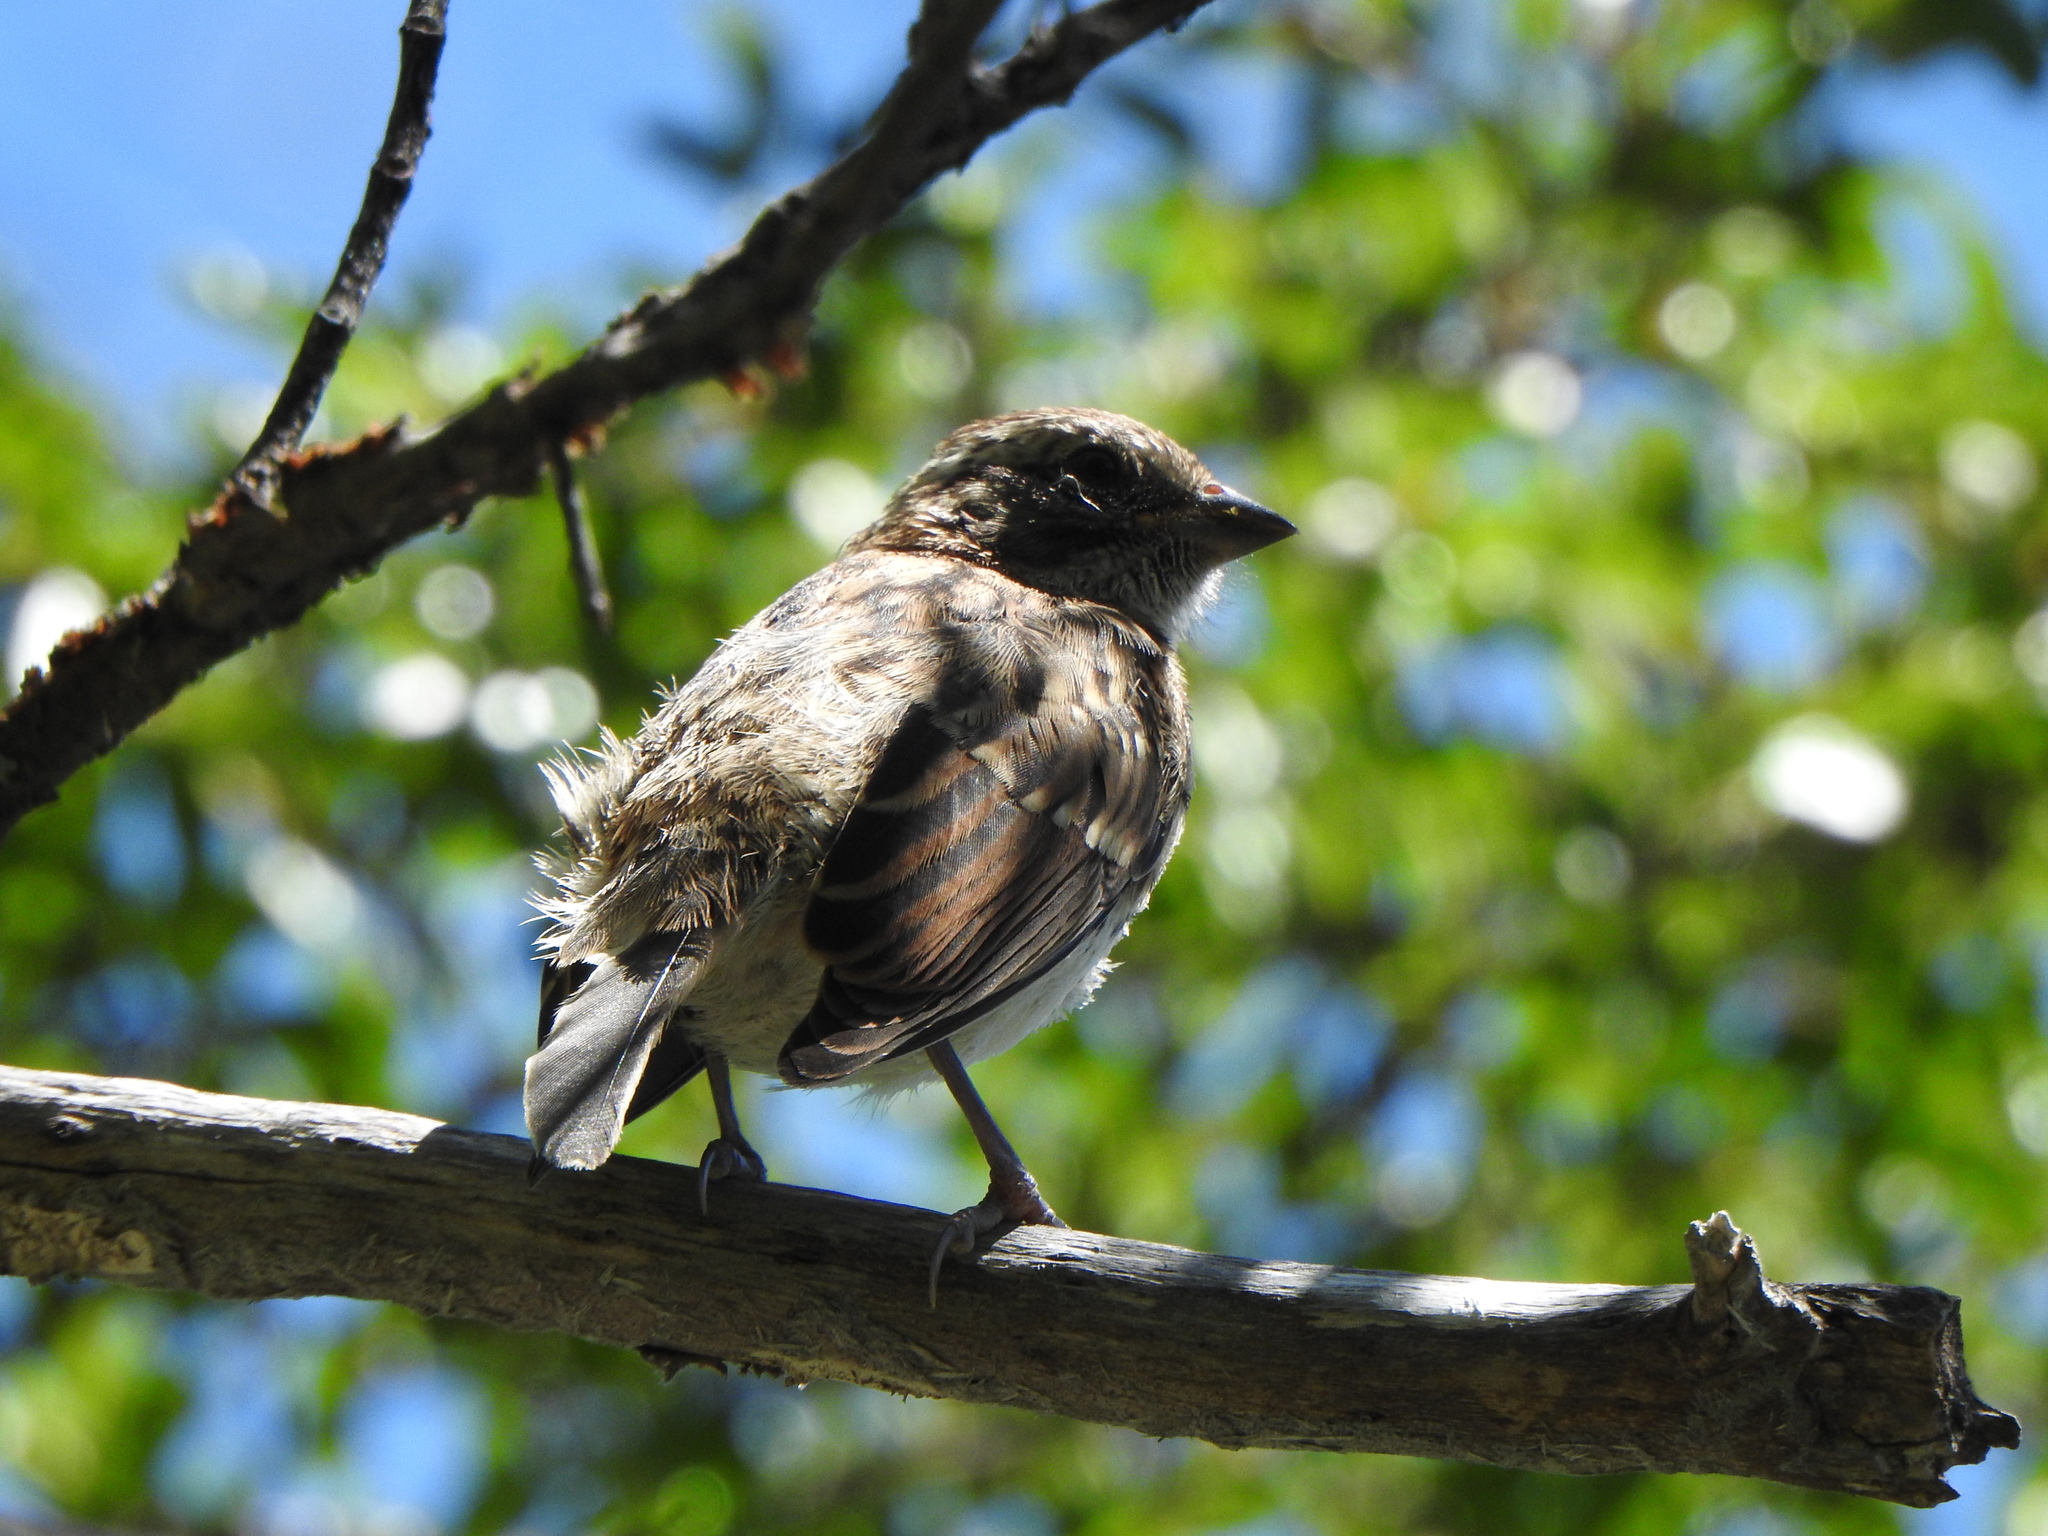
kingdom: Animalia
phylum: Chordata
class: Aves
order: Passeriformes
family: Passerellidae
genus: Zonotrichia
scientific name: Zonotrichia capensis
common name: Rufous-collared sparrow
